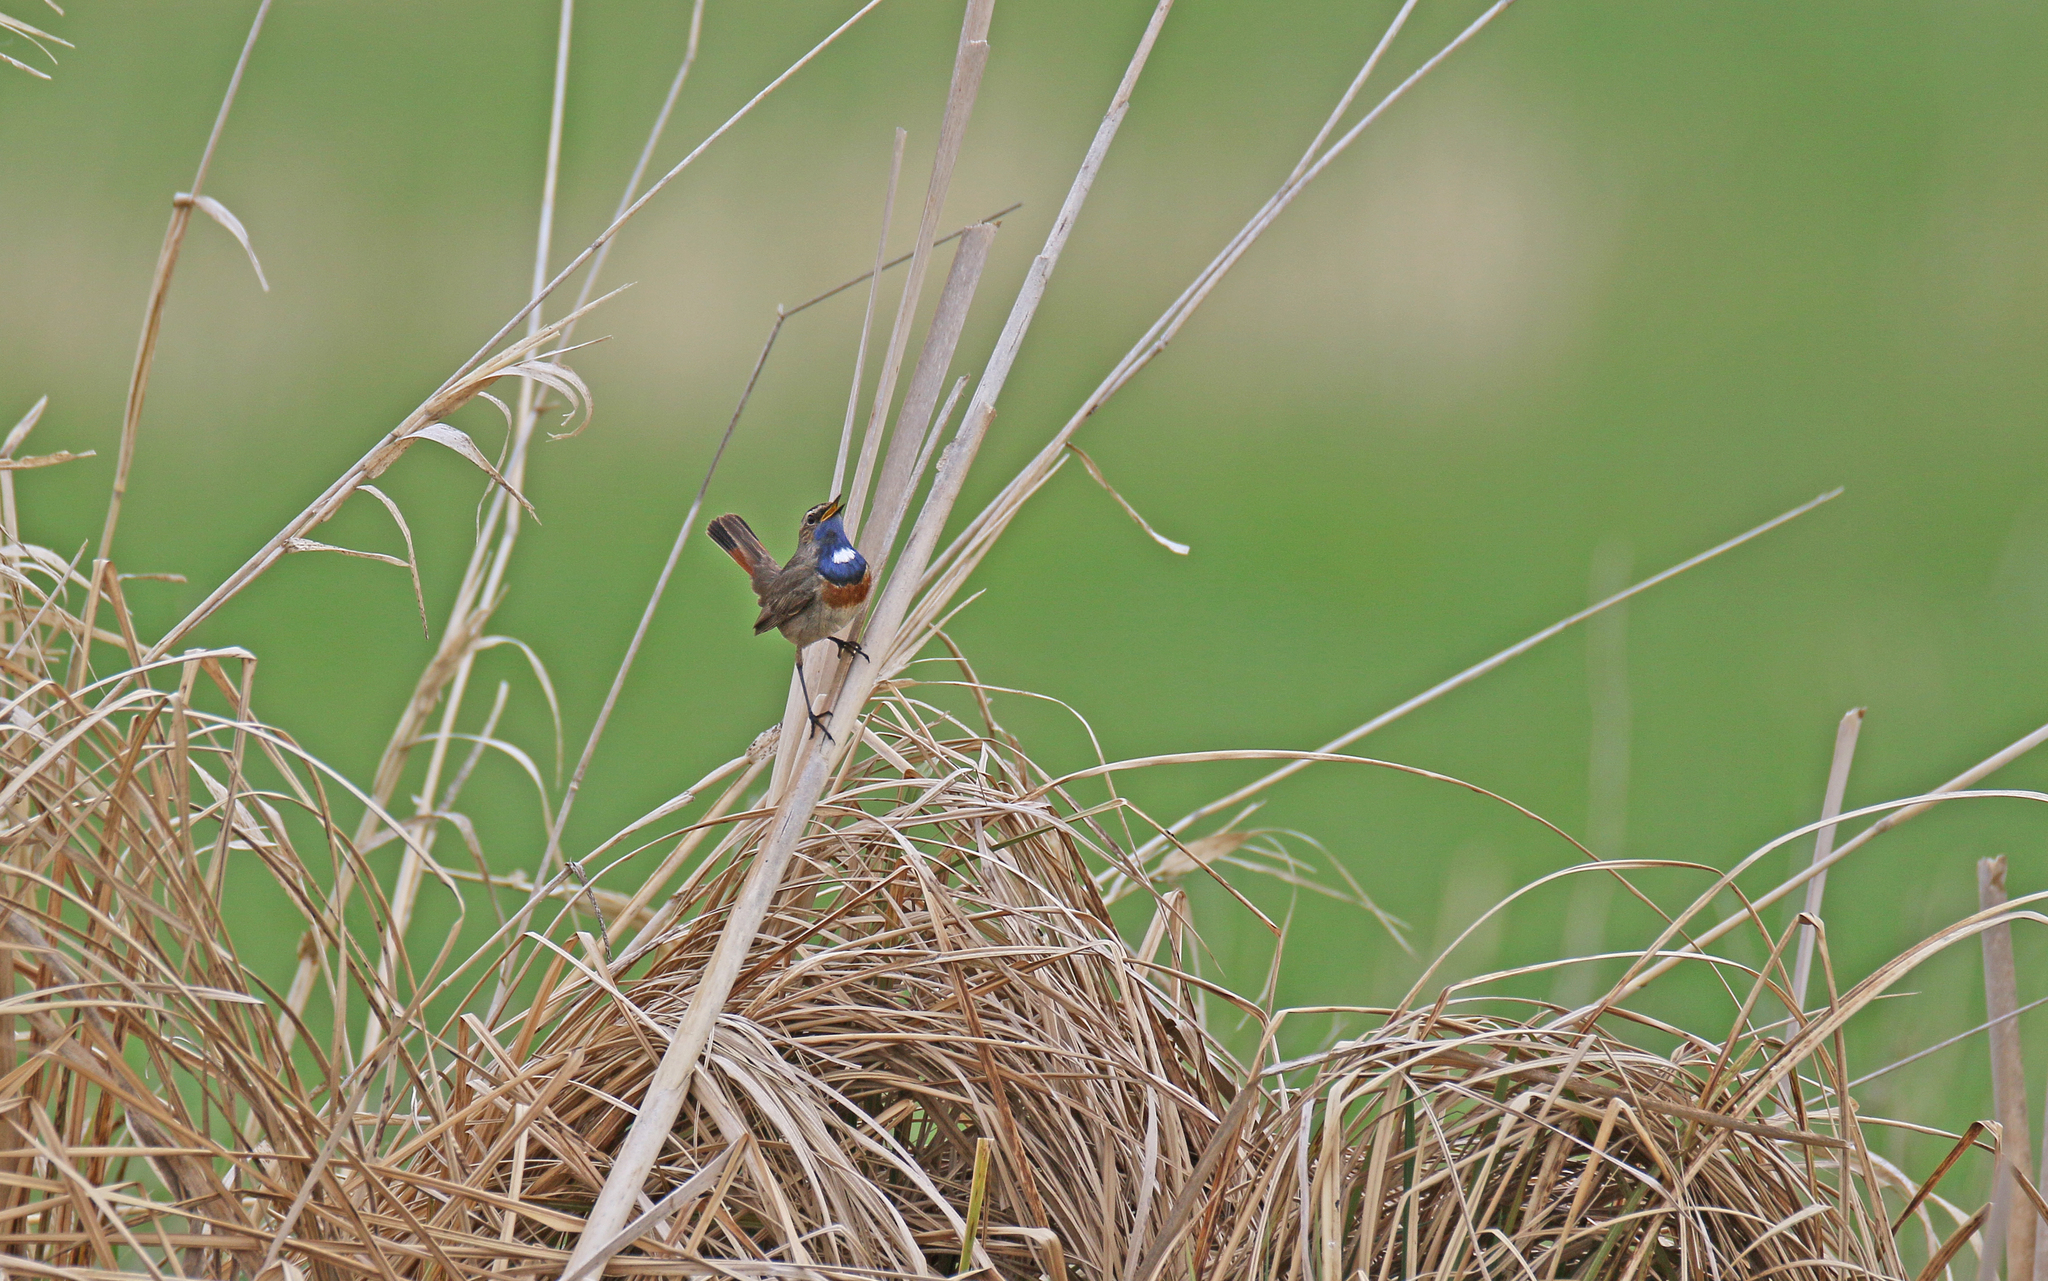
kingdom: Animalia
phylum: Chordata
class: Aves
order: Passeriformes
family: Muscicapidae
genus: Luscinia
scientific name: Luscinia svecica
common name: Bluethroat
